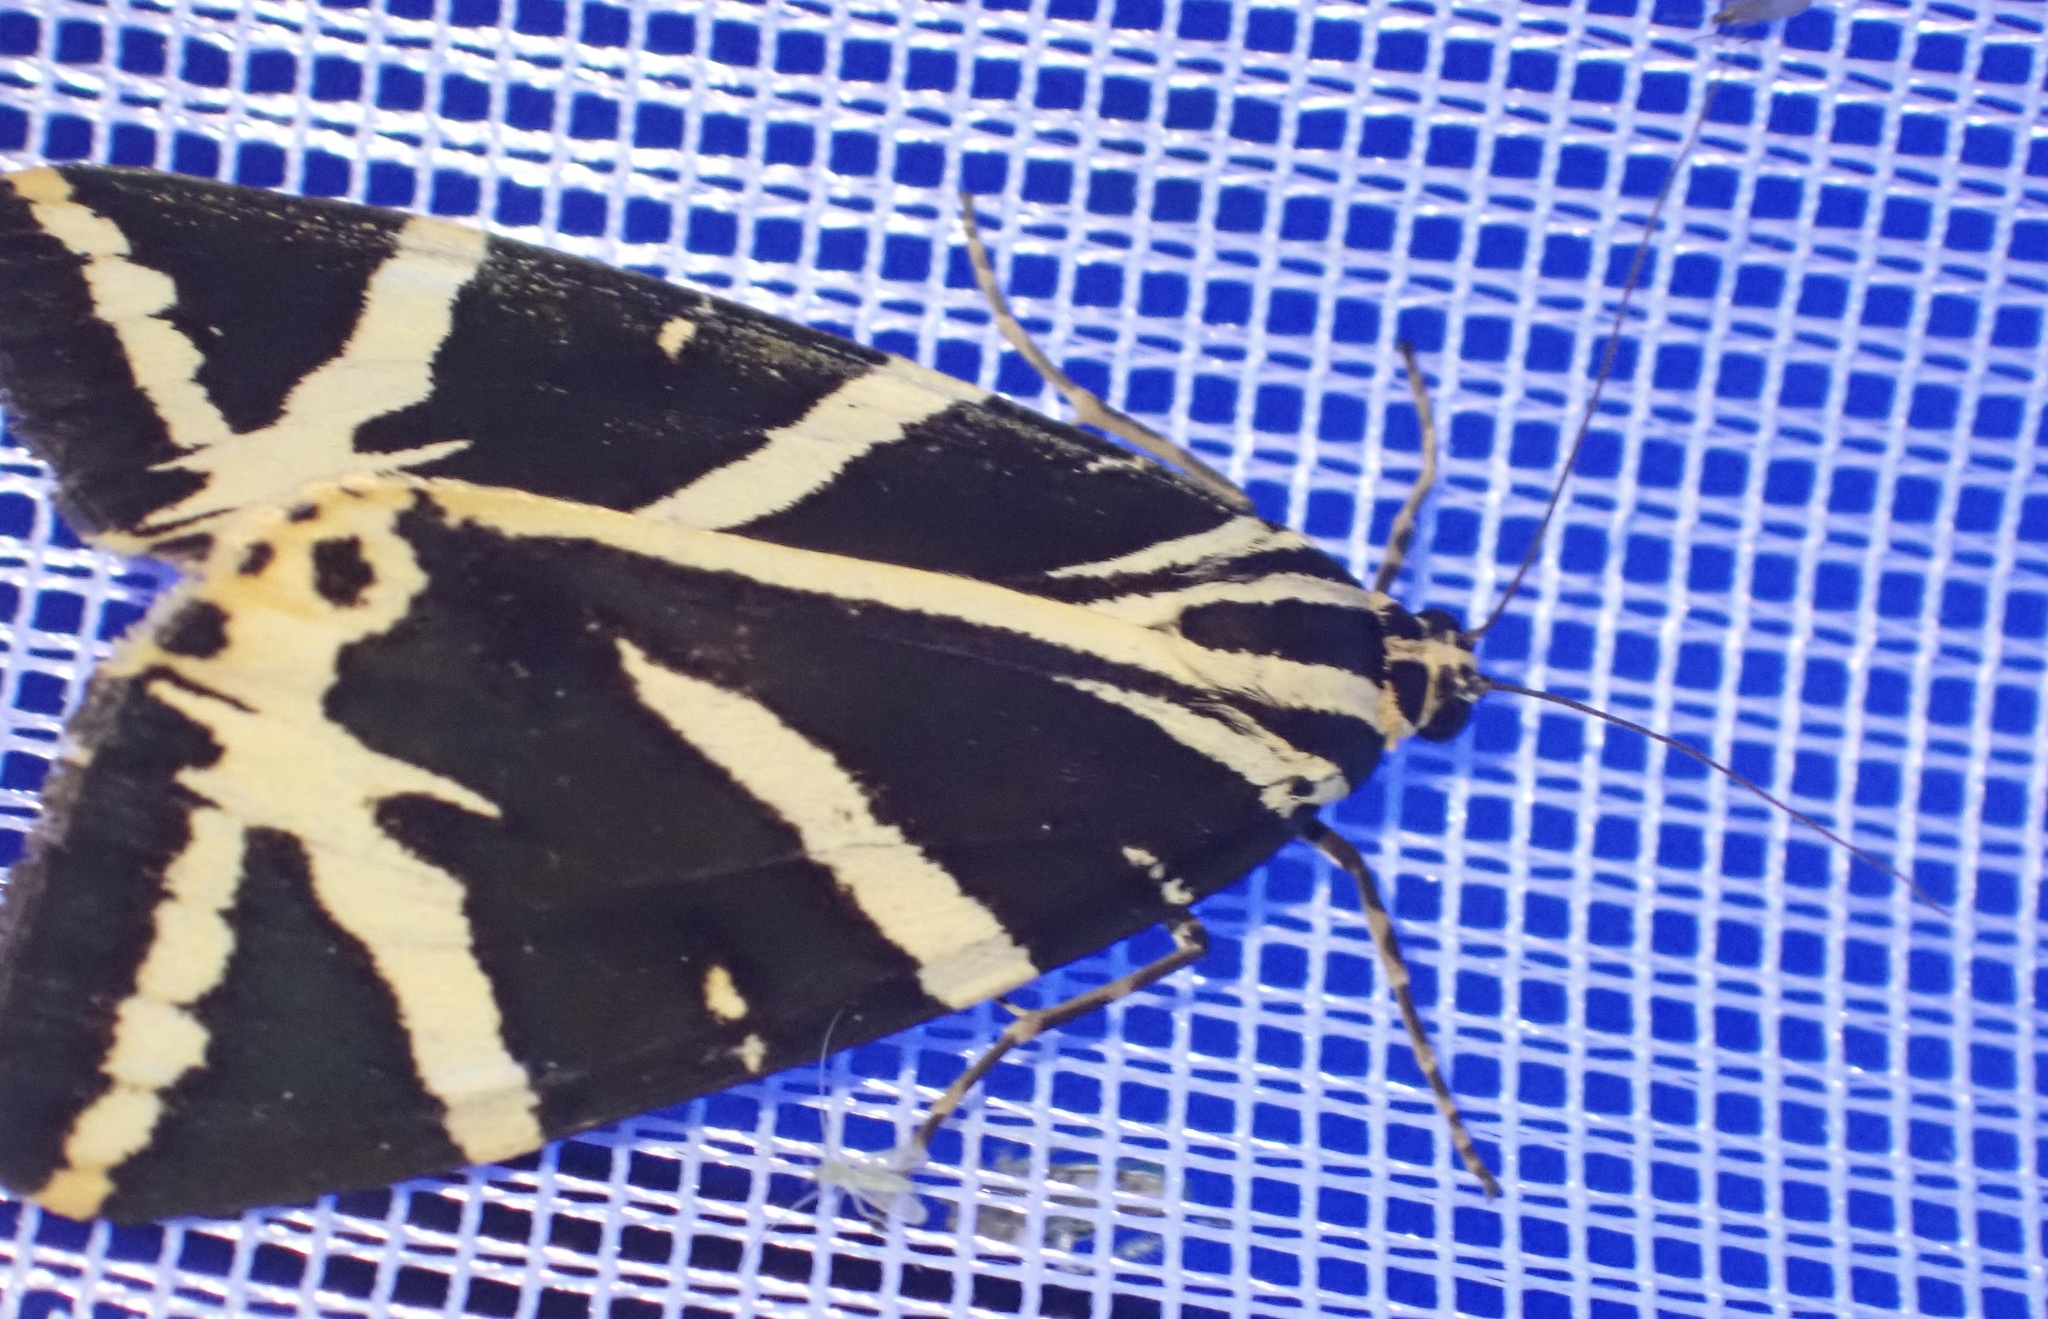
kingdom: Animalia
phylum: Arthropoda
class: Insecta
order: Lepidoptera
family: Erebidae
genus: Euplagia
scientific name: Euplagia quadripunctaria
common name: Jersey tiger
